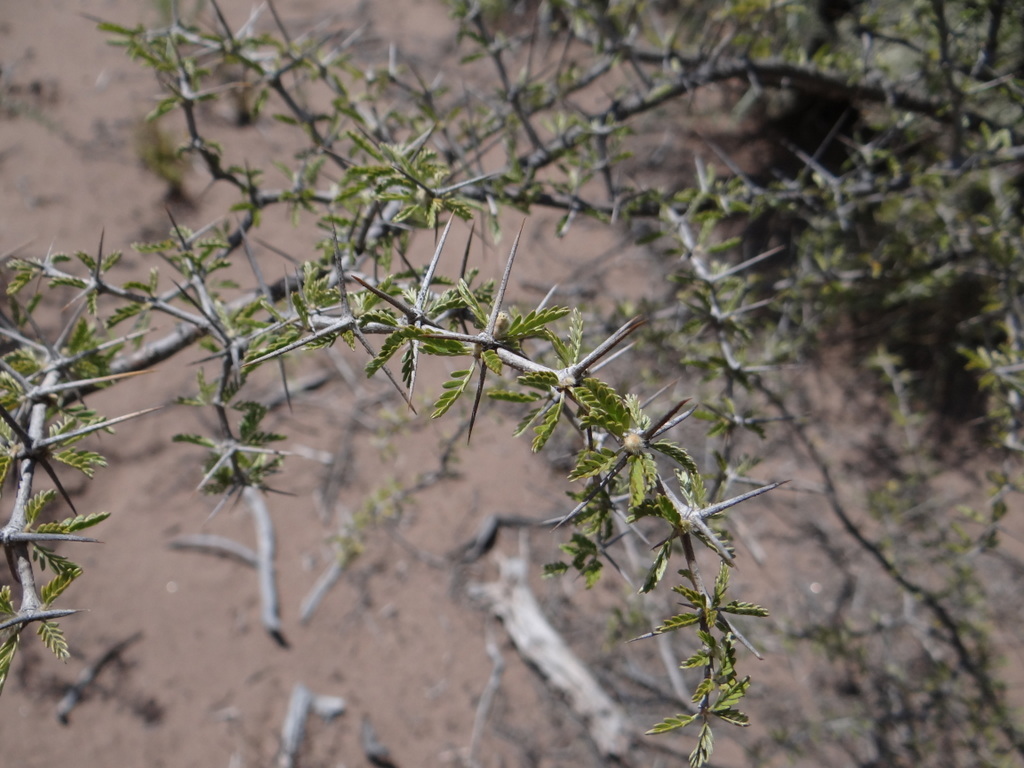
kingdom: Plantae
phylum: Tracheophyta
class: Magnoliopsida
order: Zygophyllales
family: Zygophyllaceae
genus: Plectrocarpa
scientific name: Plectrocarpa tetracantha
